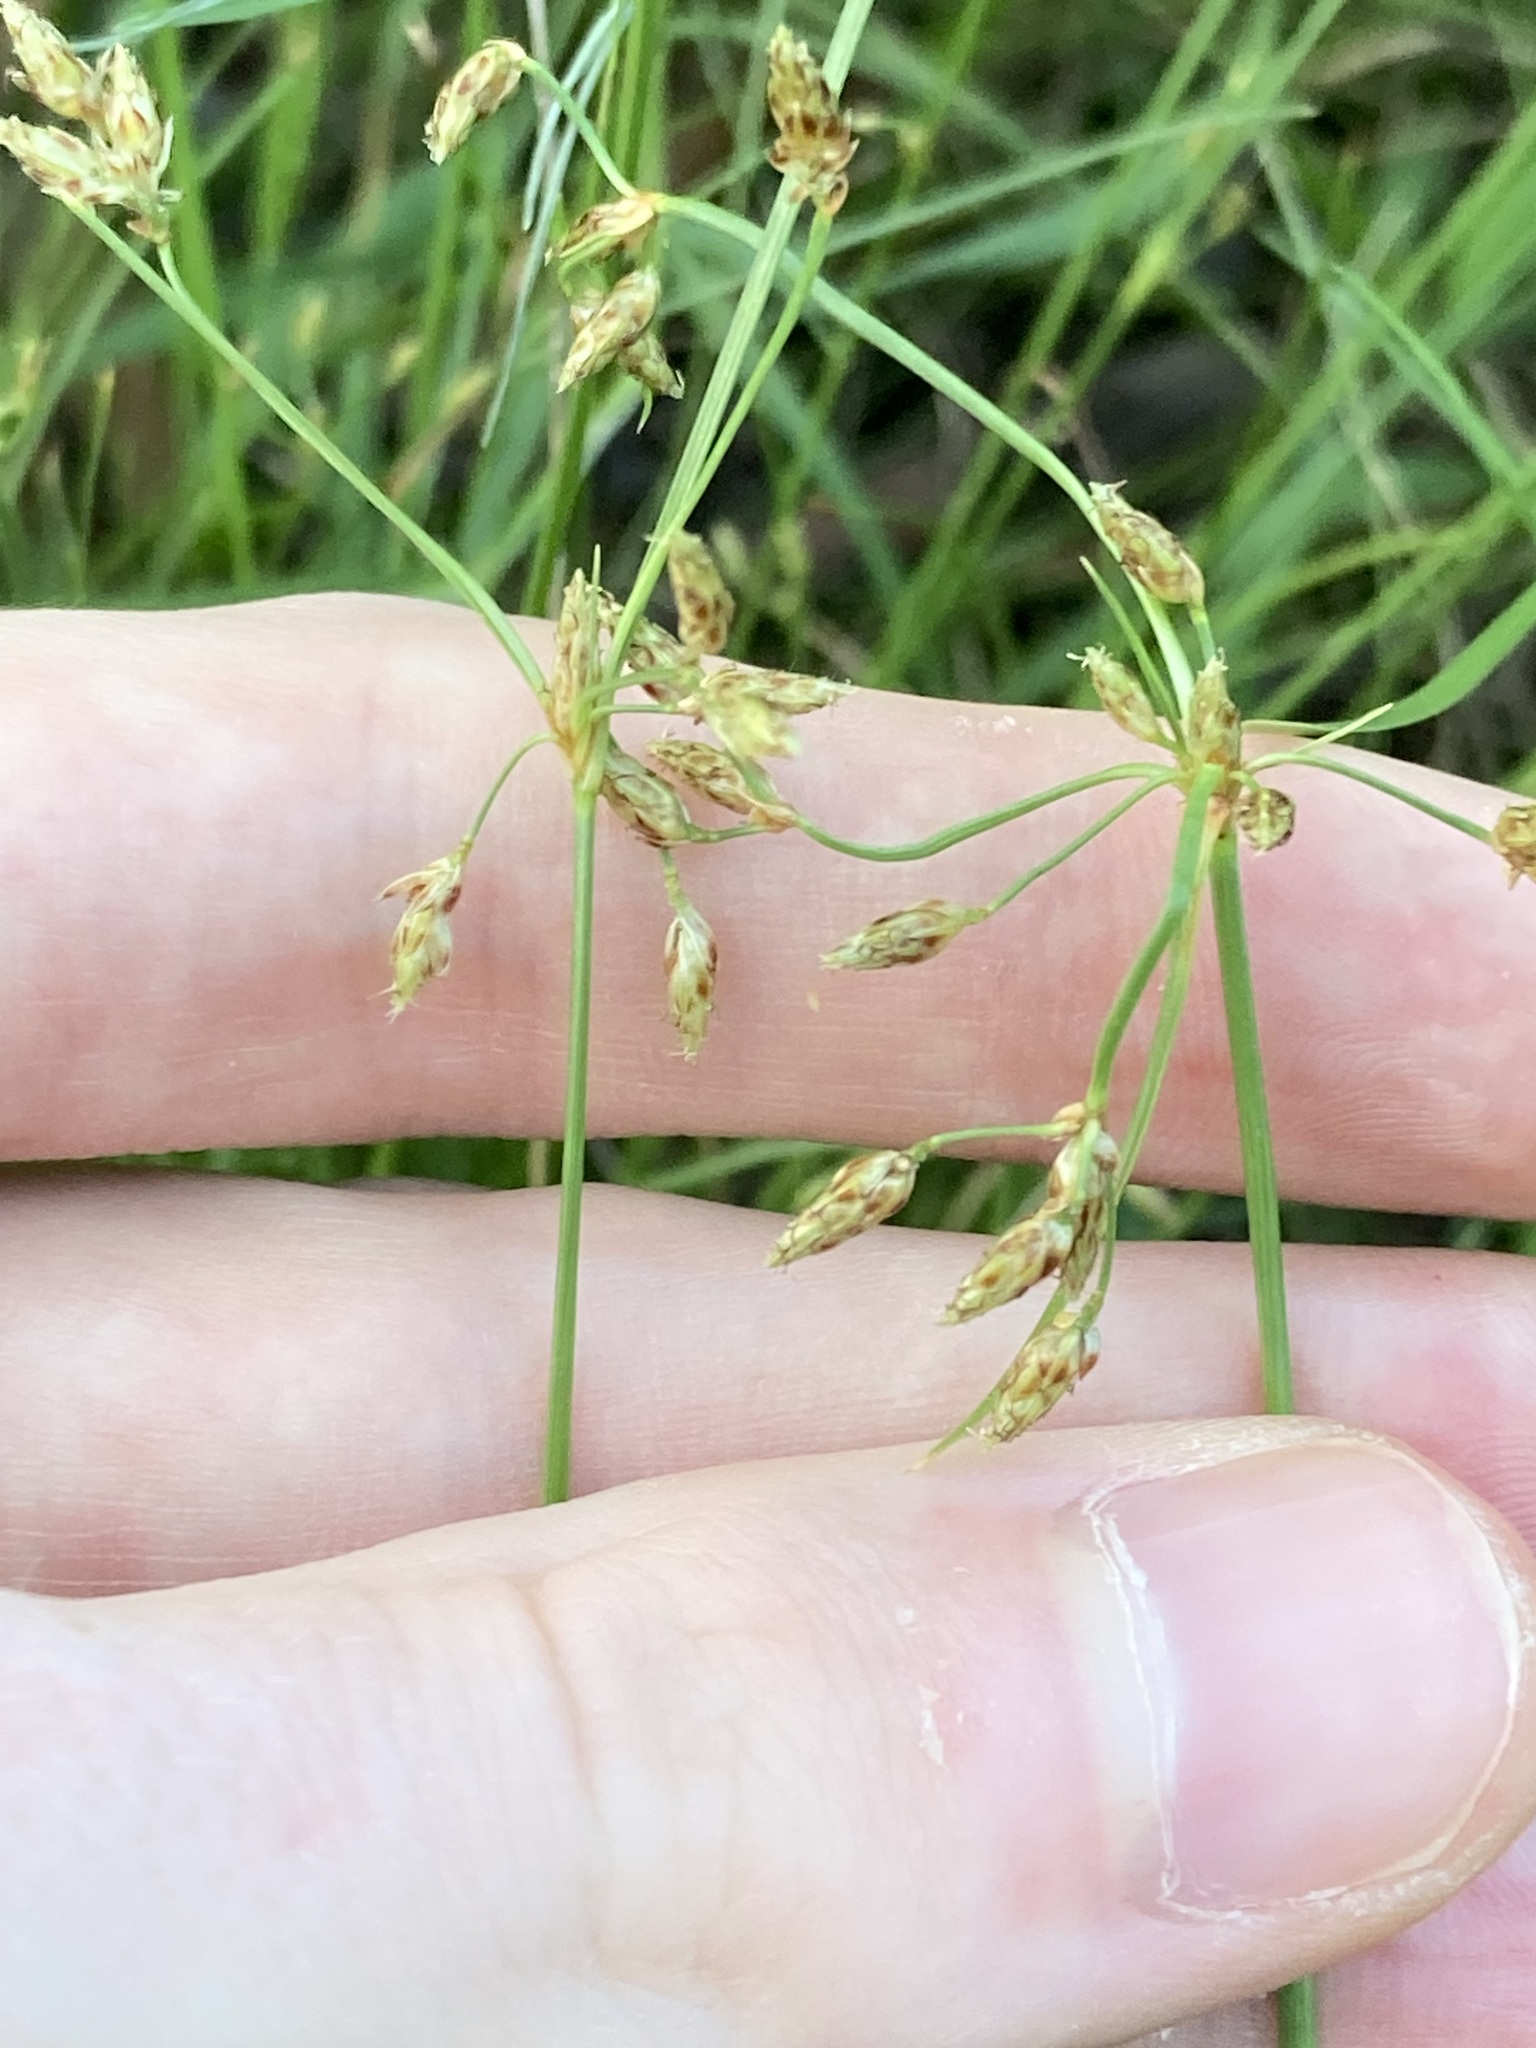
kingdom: Plantae
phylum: Tracheophyta
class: Liliopsida
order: Poales
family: Cyperaceae
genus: Fimbristylis
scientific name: Fimbristylis dichotoma
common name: Forked fimbry
